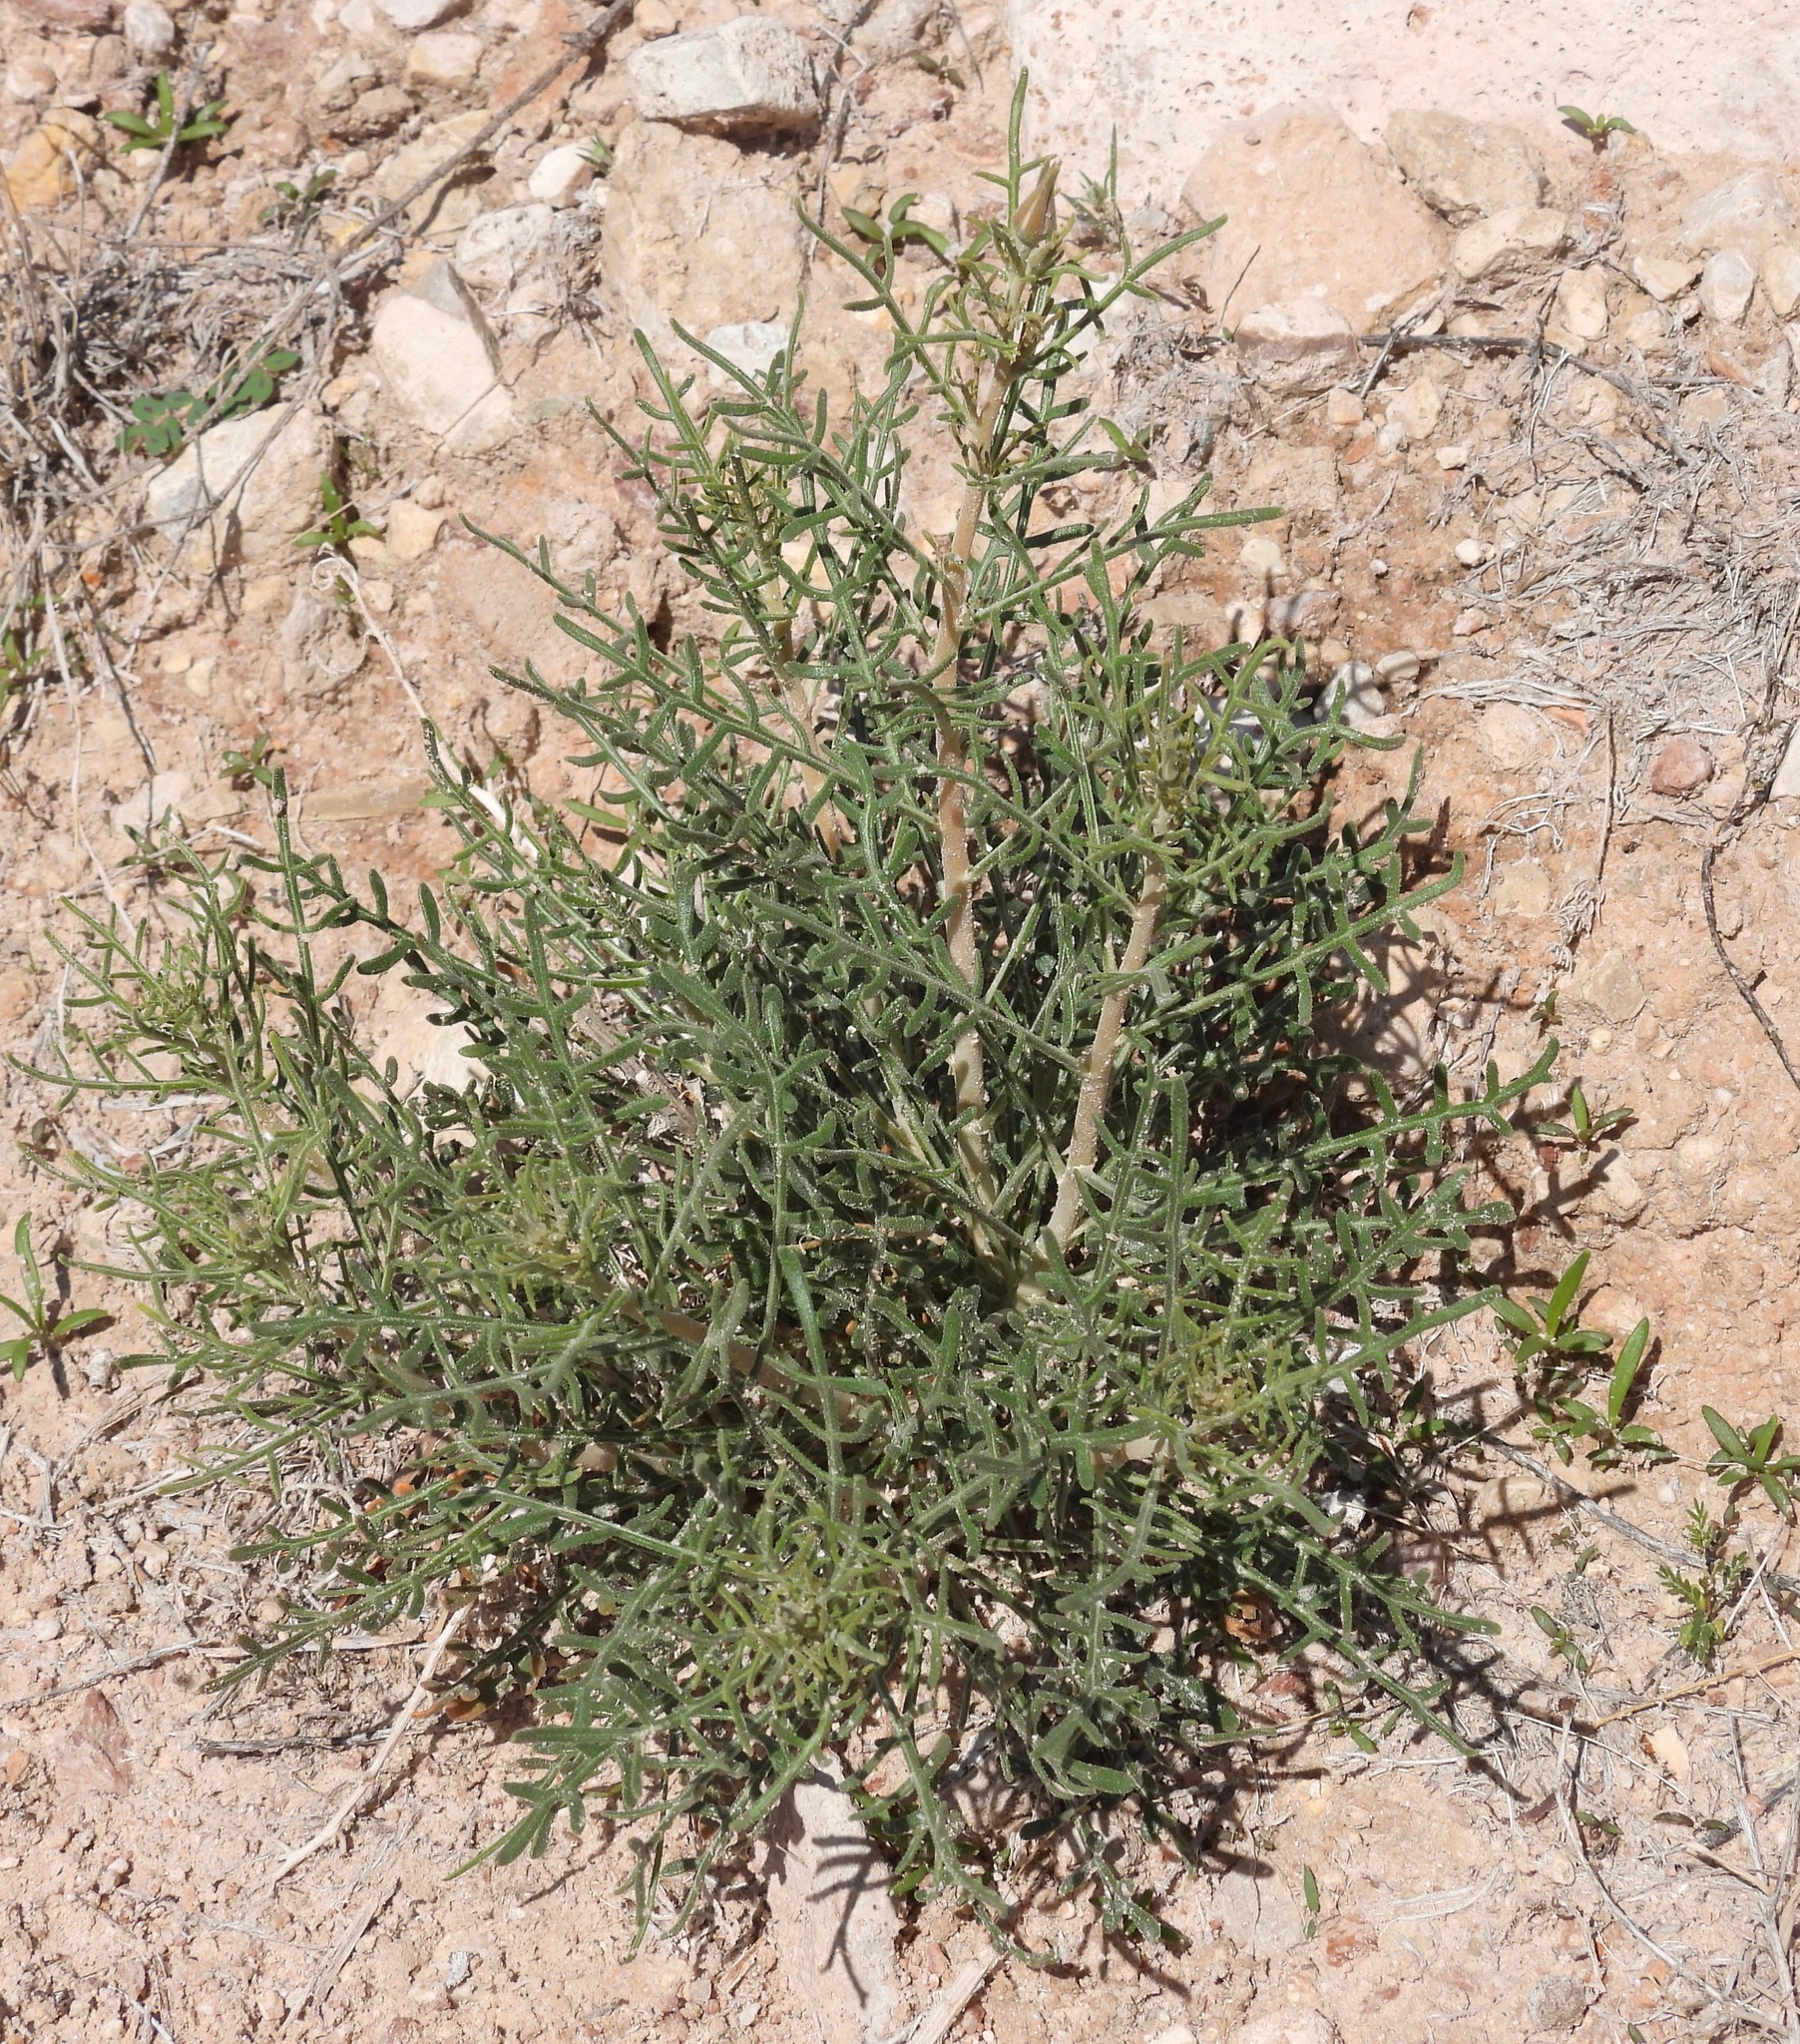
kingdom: Plantae
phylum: Tracheophyta
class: Magnoliopsida
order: Cornales
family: Loasaceae
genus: Mentzelia
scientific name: Mentzelia humilis
